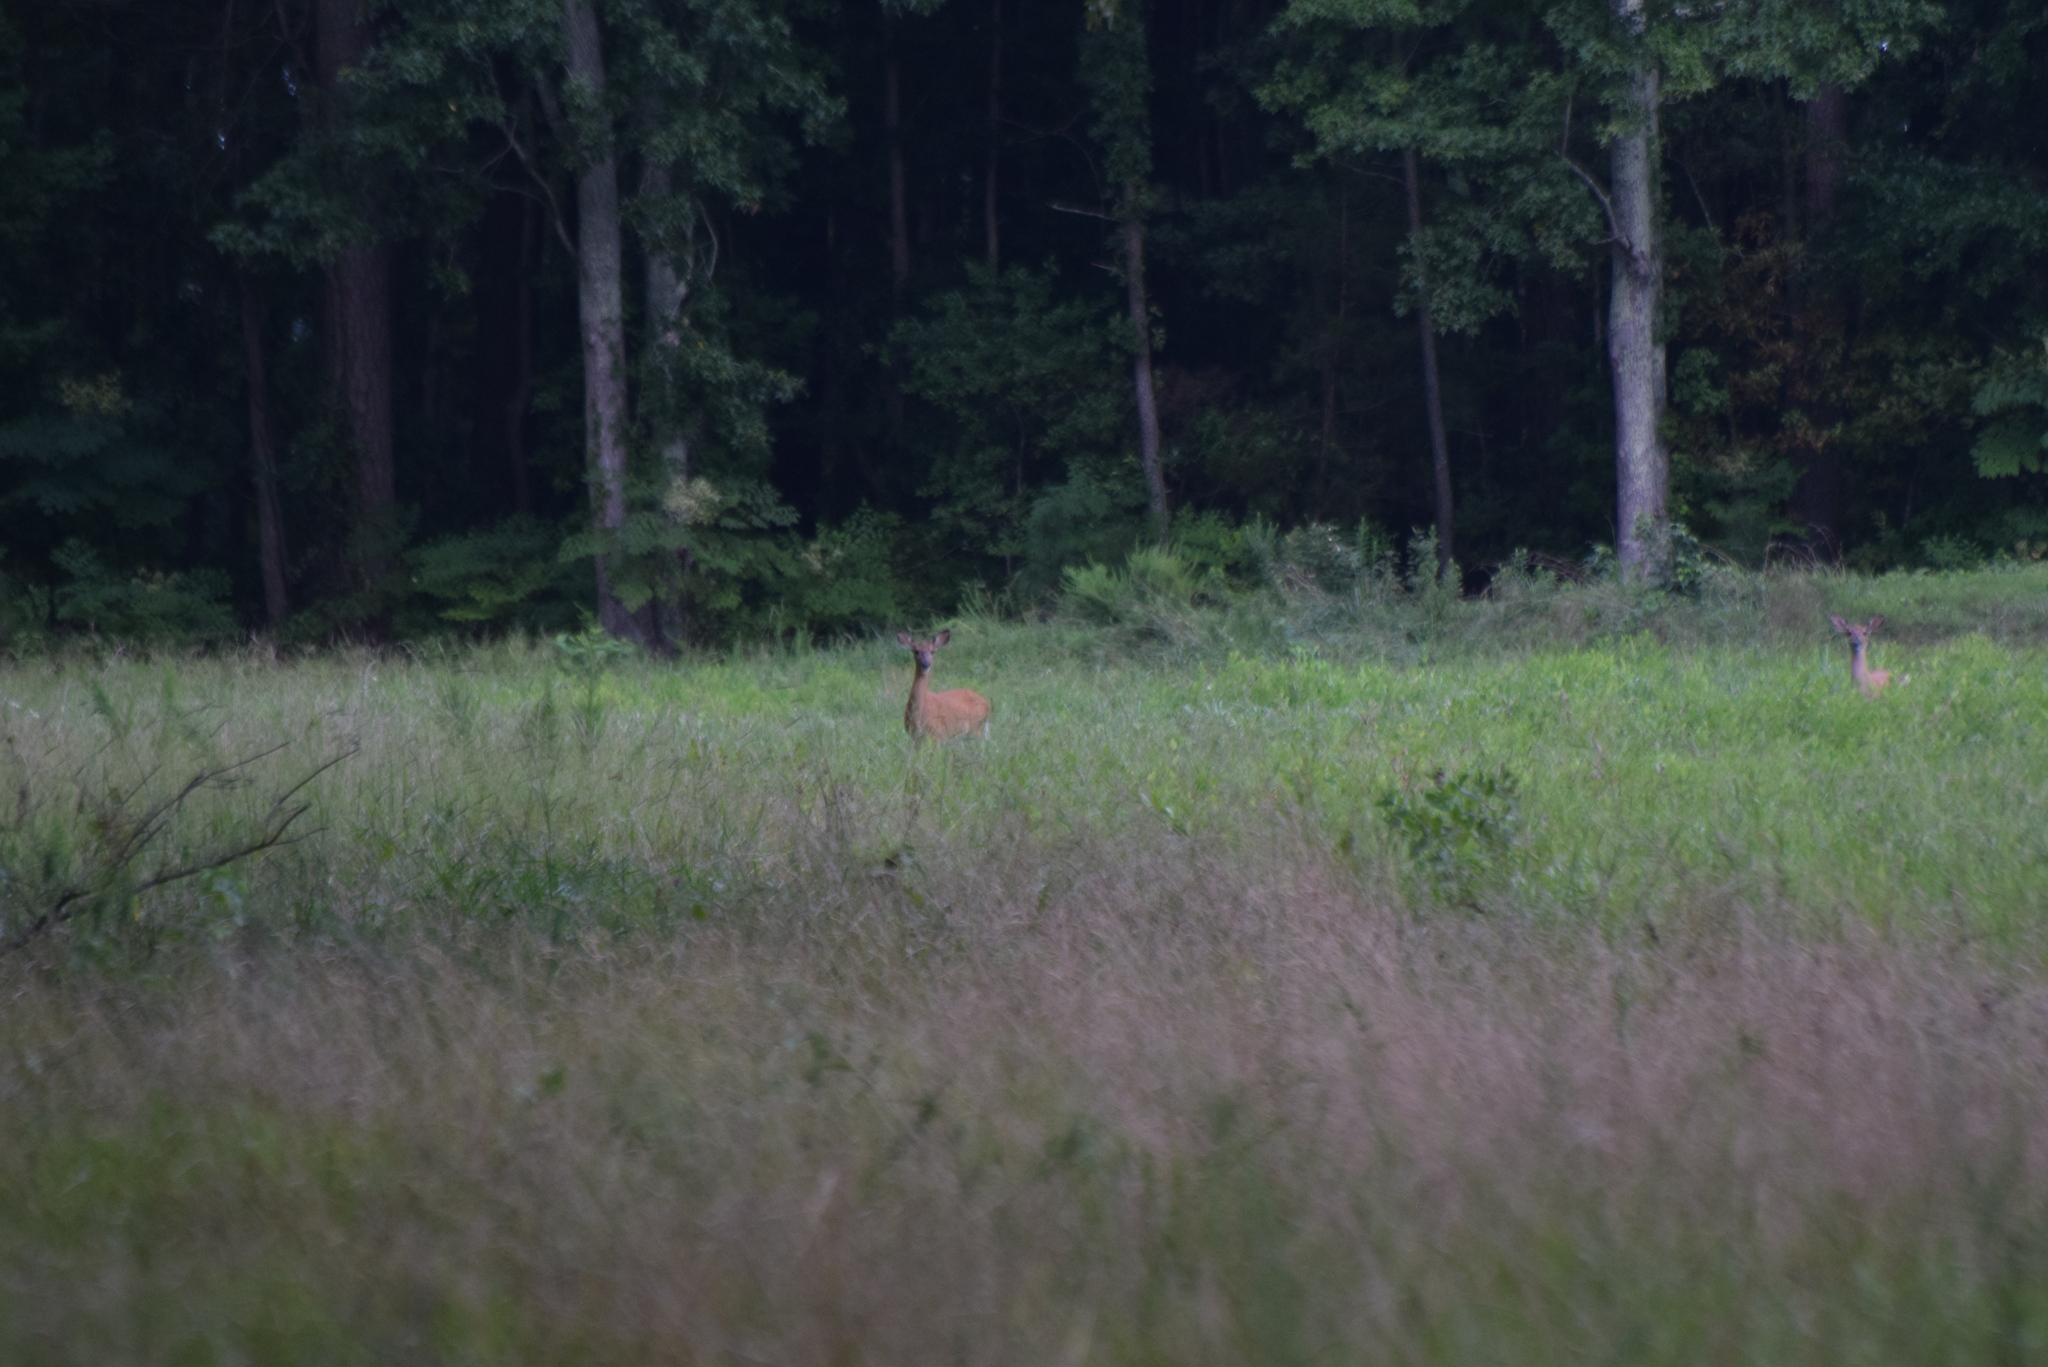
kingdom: Animalia
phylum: Chordata
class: Mammalia
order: Artiodactyla
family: Cervidae
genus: Odocoileus
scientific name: Odocoileus virginianus
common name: White-tailed deer
